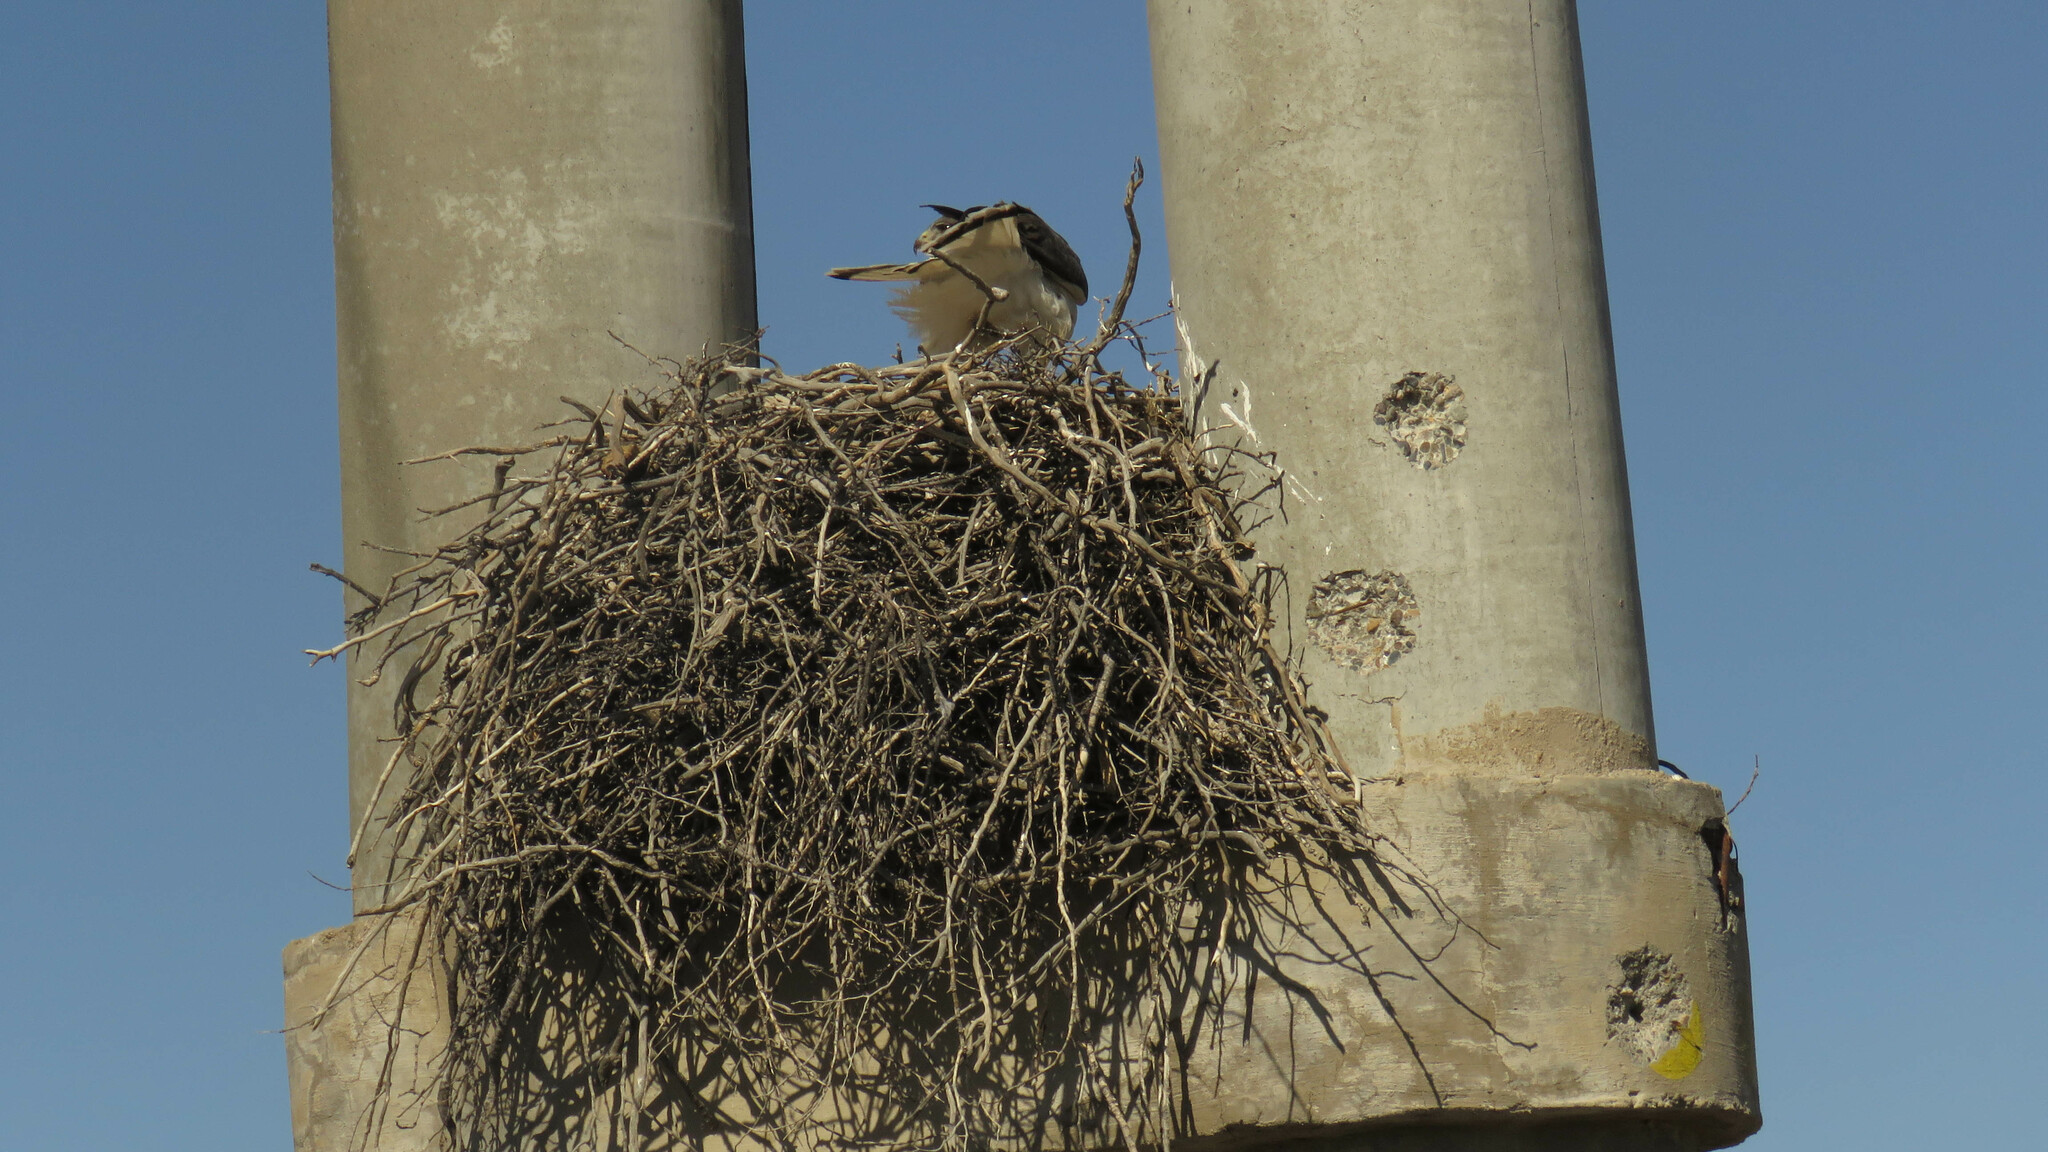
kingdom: Animalia
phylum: Chordata
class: Aves
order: Accipitriformes
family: Accipitridae
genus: Buteo
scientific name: Buteo polyosoma
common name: Variable hawk
